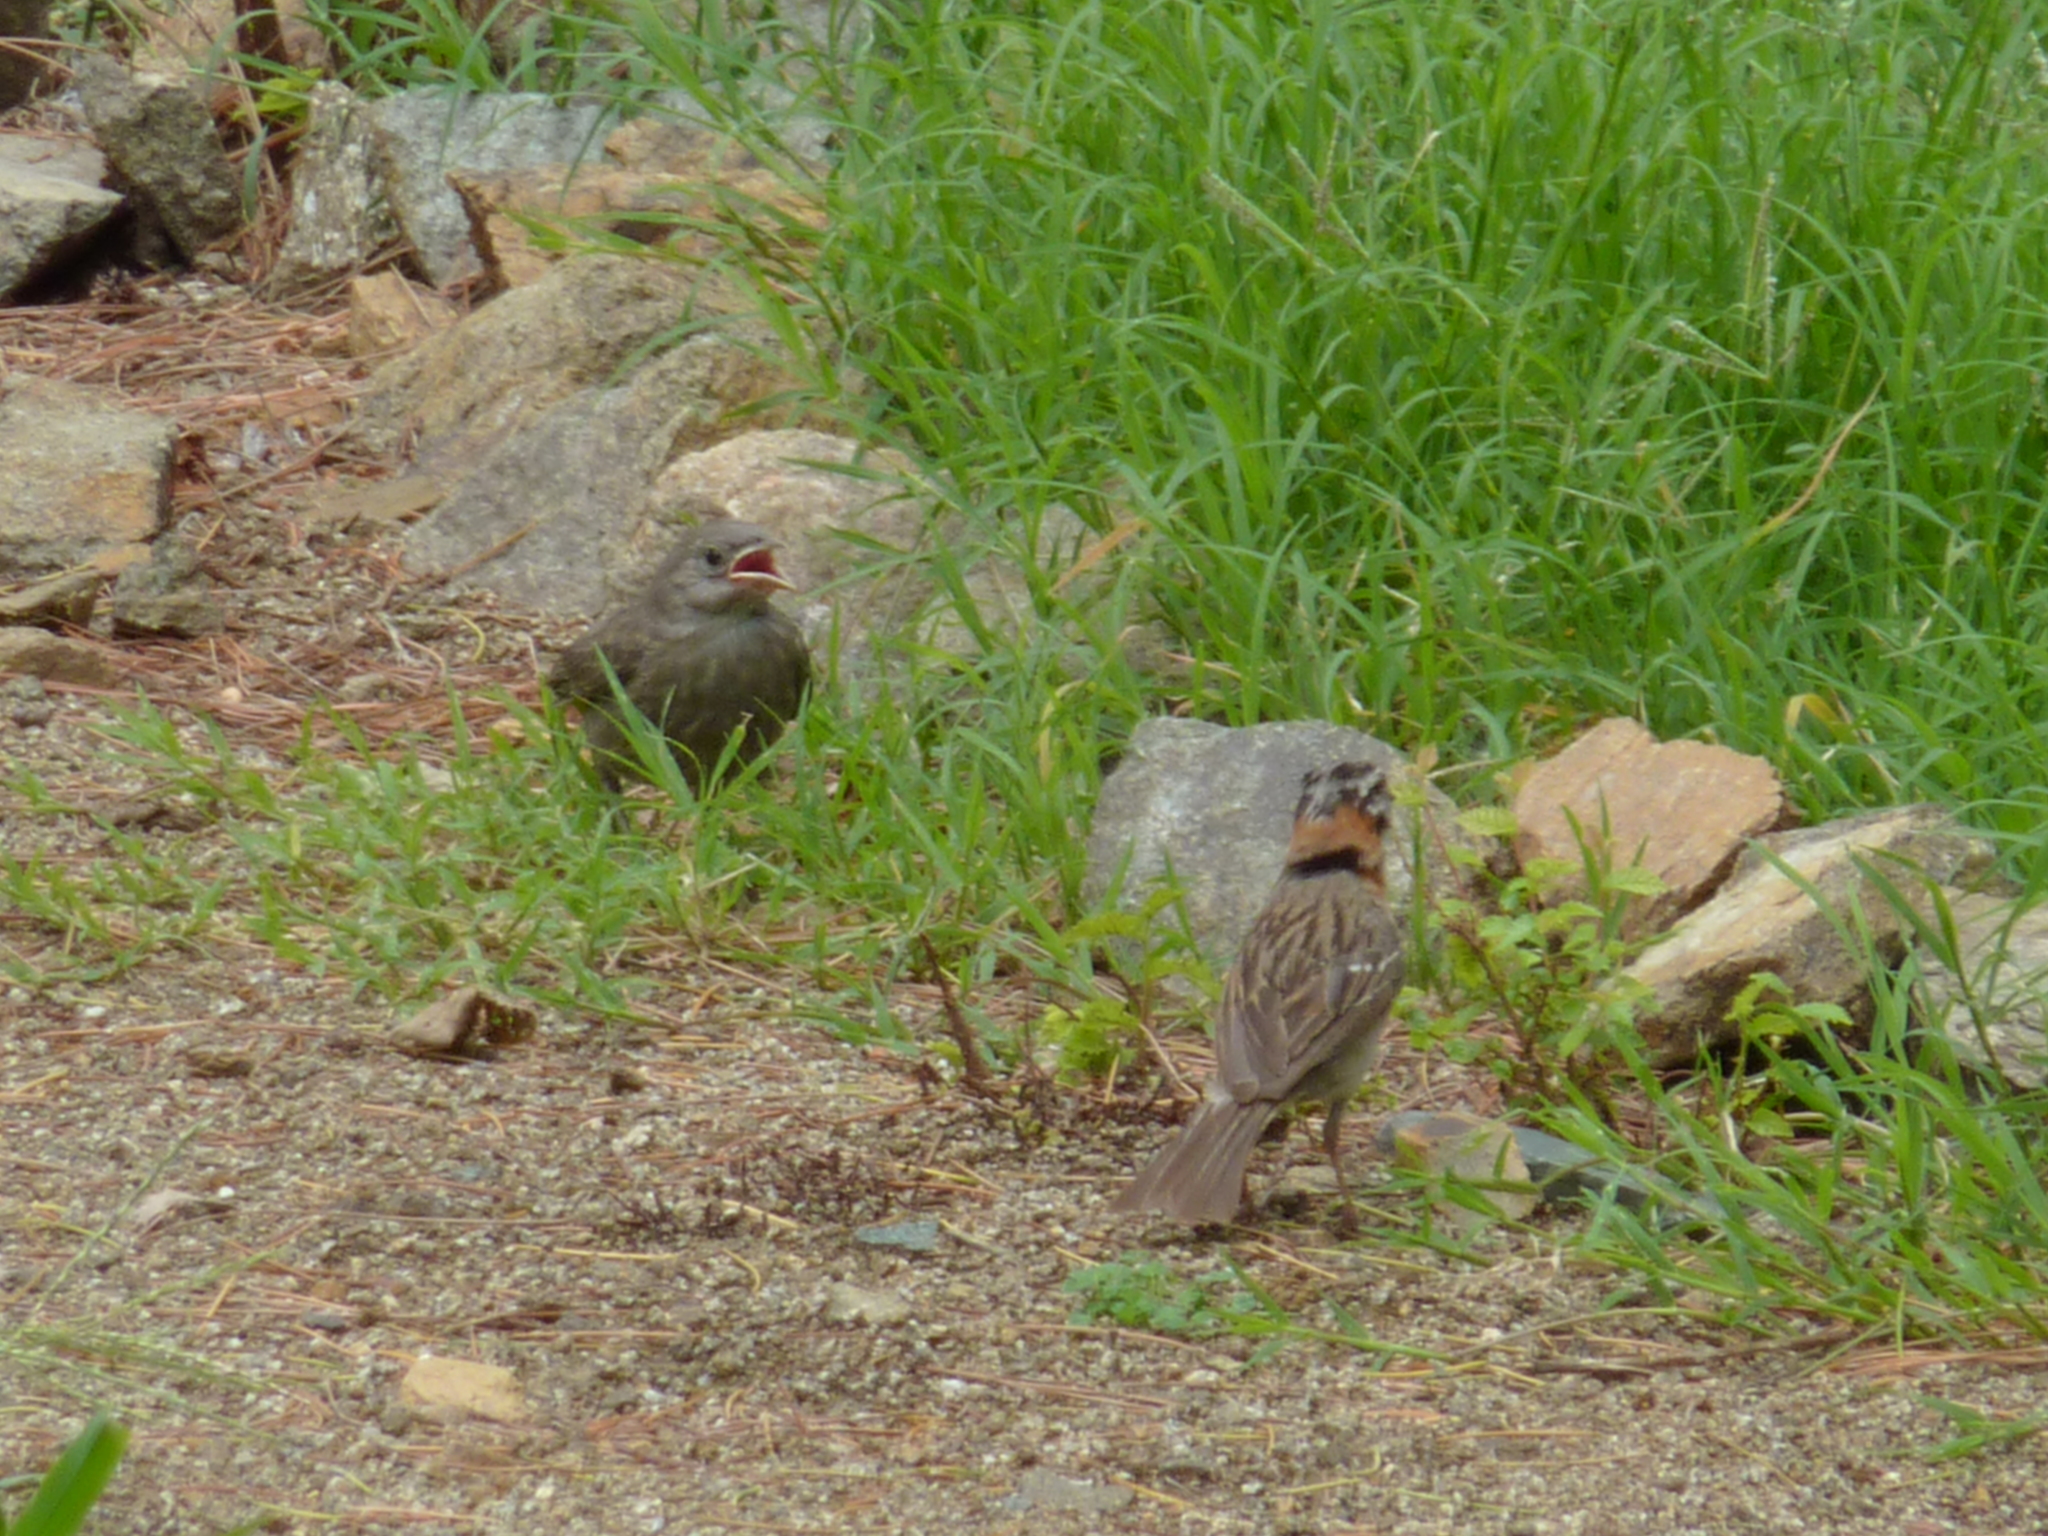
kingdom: Animalia
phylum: Chordata
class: Aves
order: Passeriformes
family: Passerellidae
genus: Zonotrichia
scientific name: Zonotrichia capensis
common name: Rufous-collared sparrow
